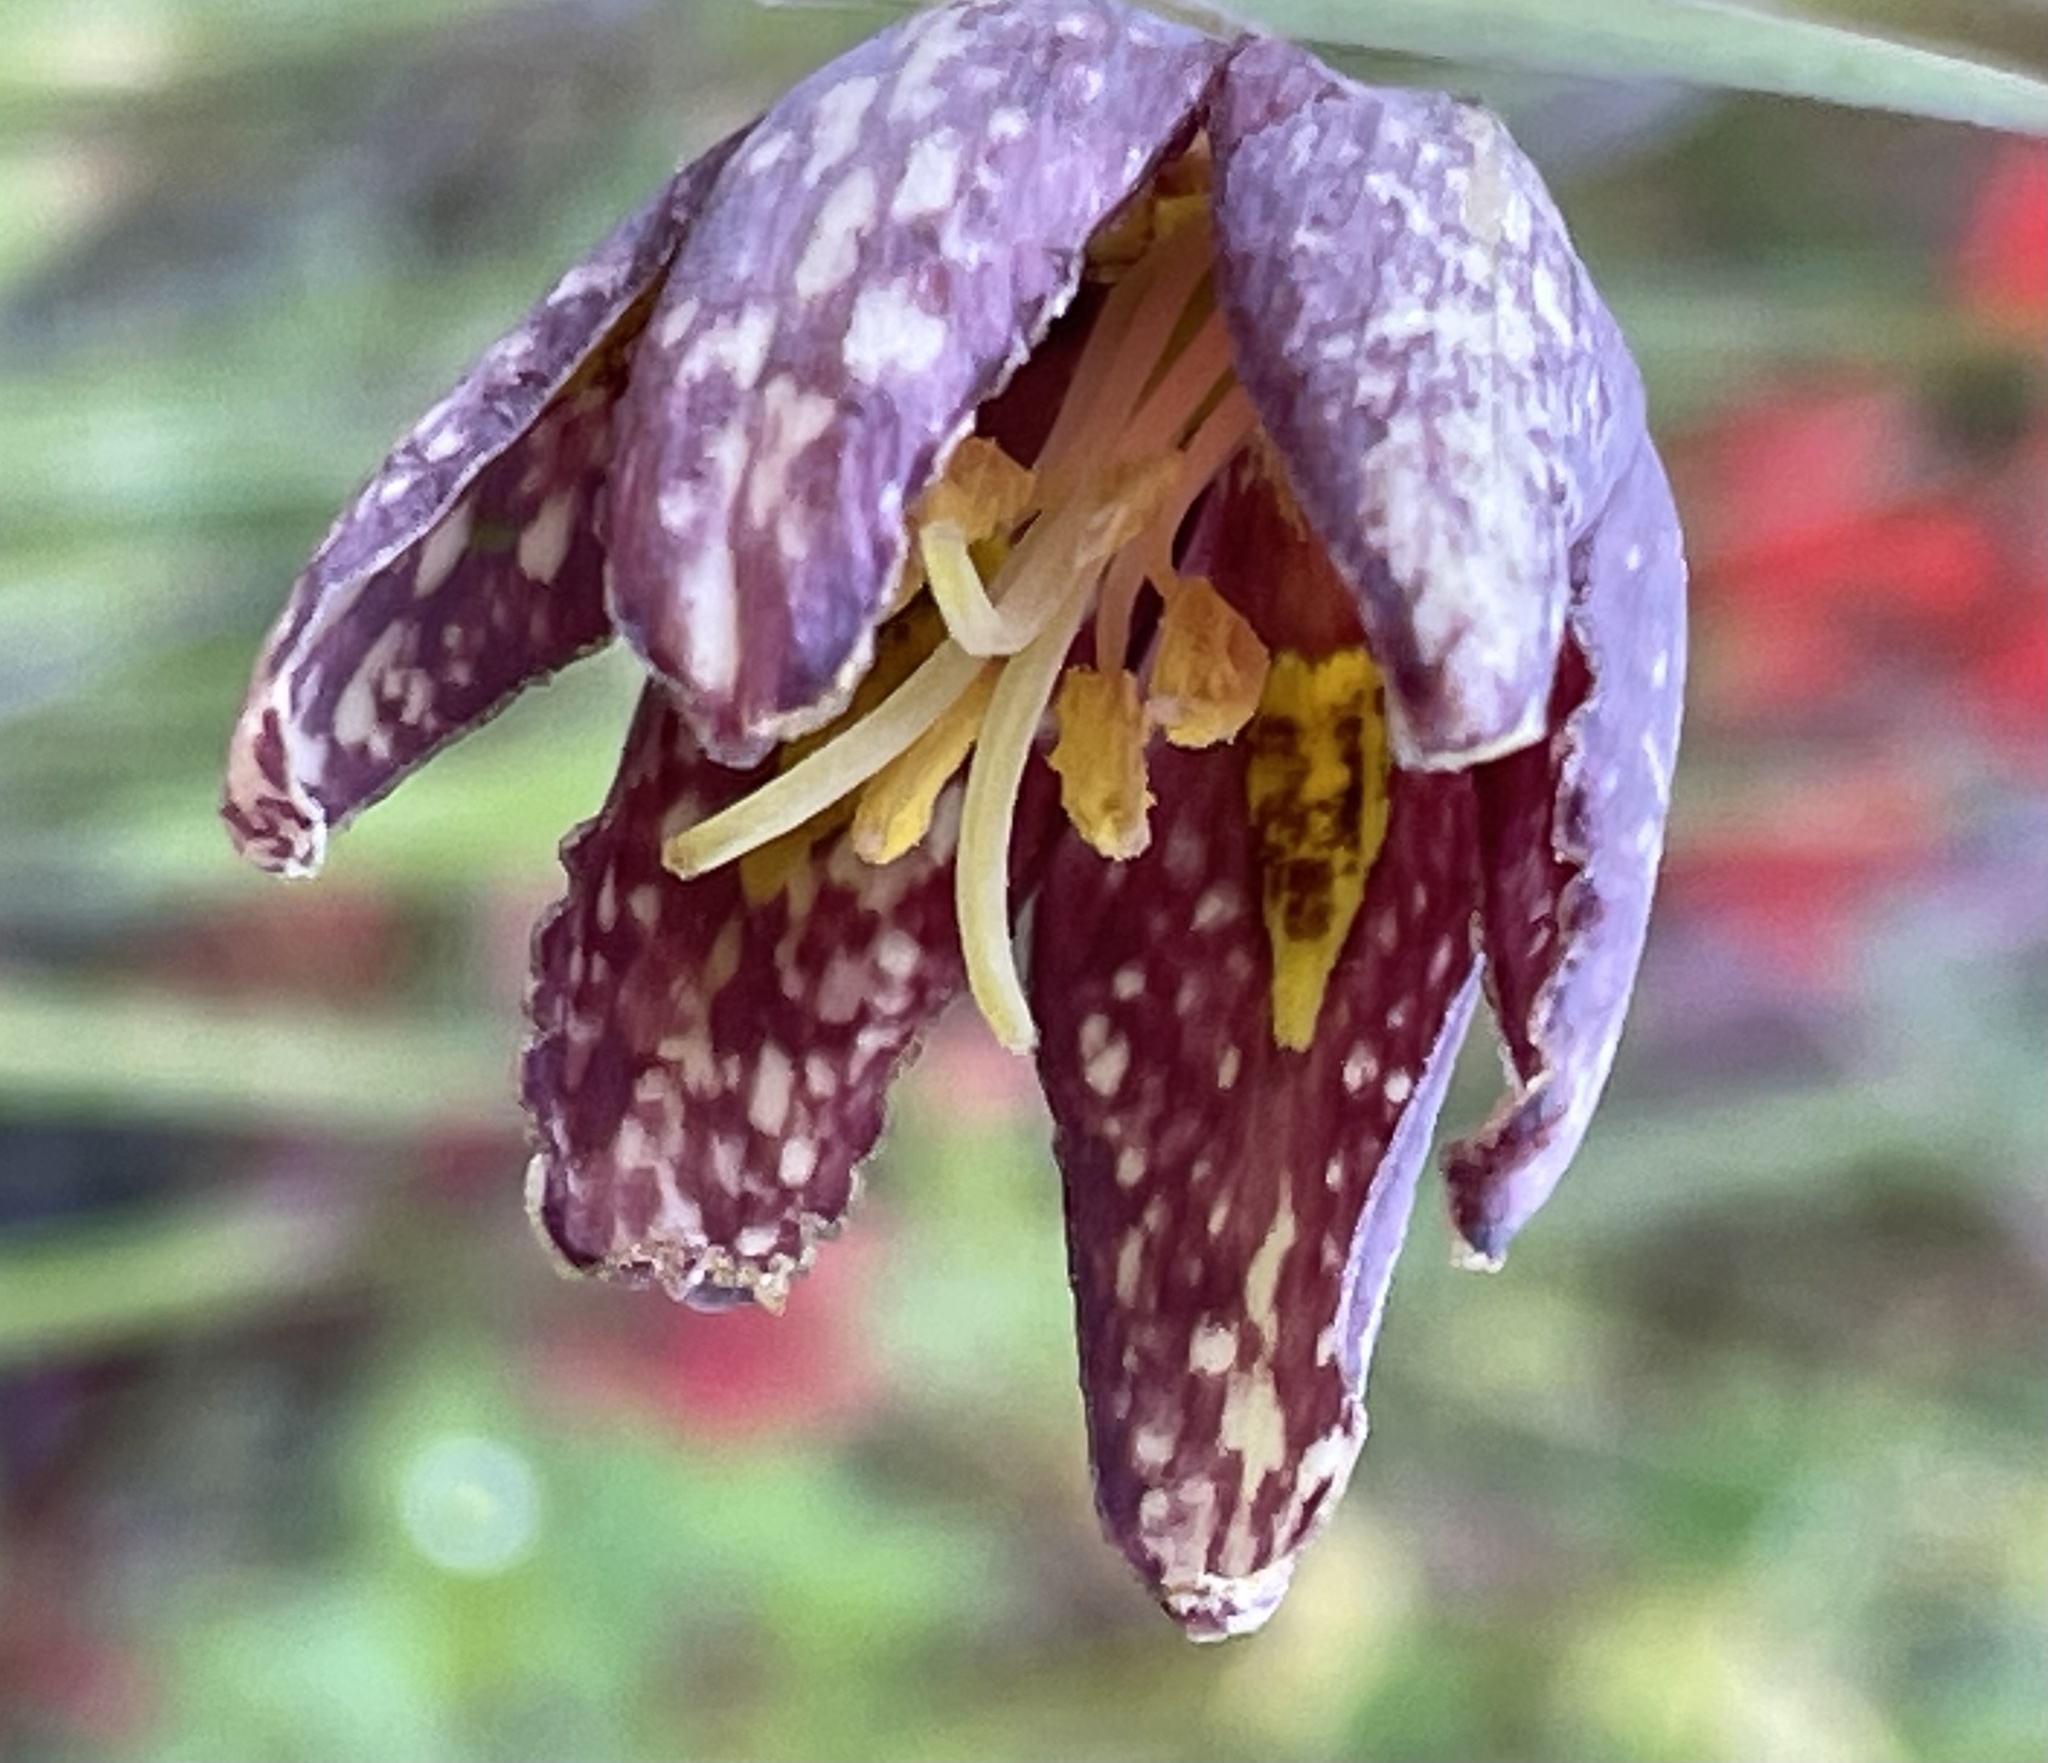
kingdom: Plantae
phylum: Tracheophyta
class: Liliopsida
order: Liliales
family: Liliaceae
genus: Fritillaria
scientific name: Fritillaria affinis
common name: Ojai fritillary
